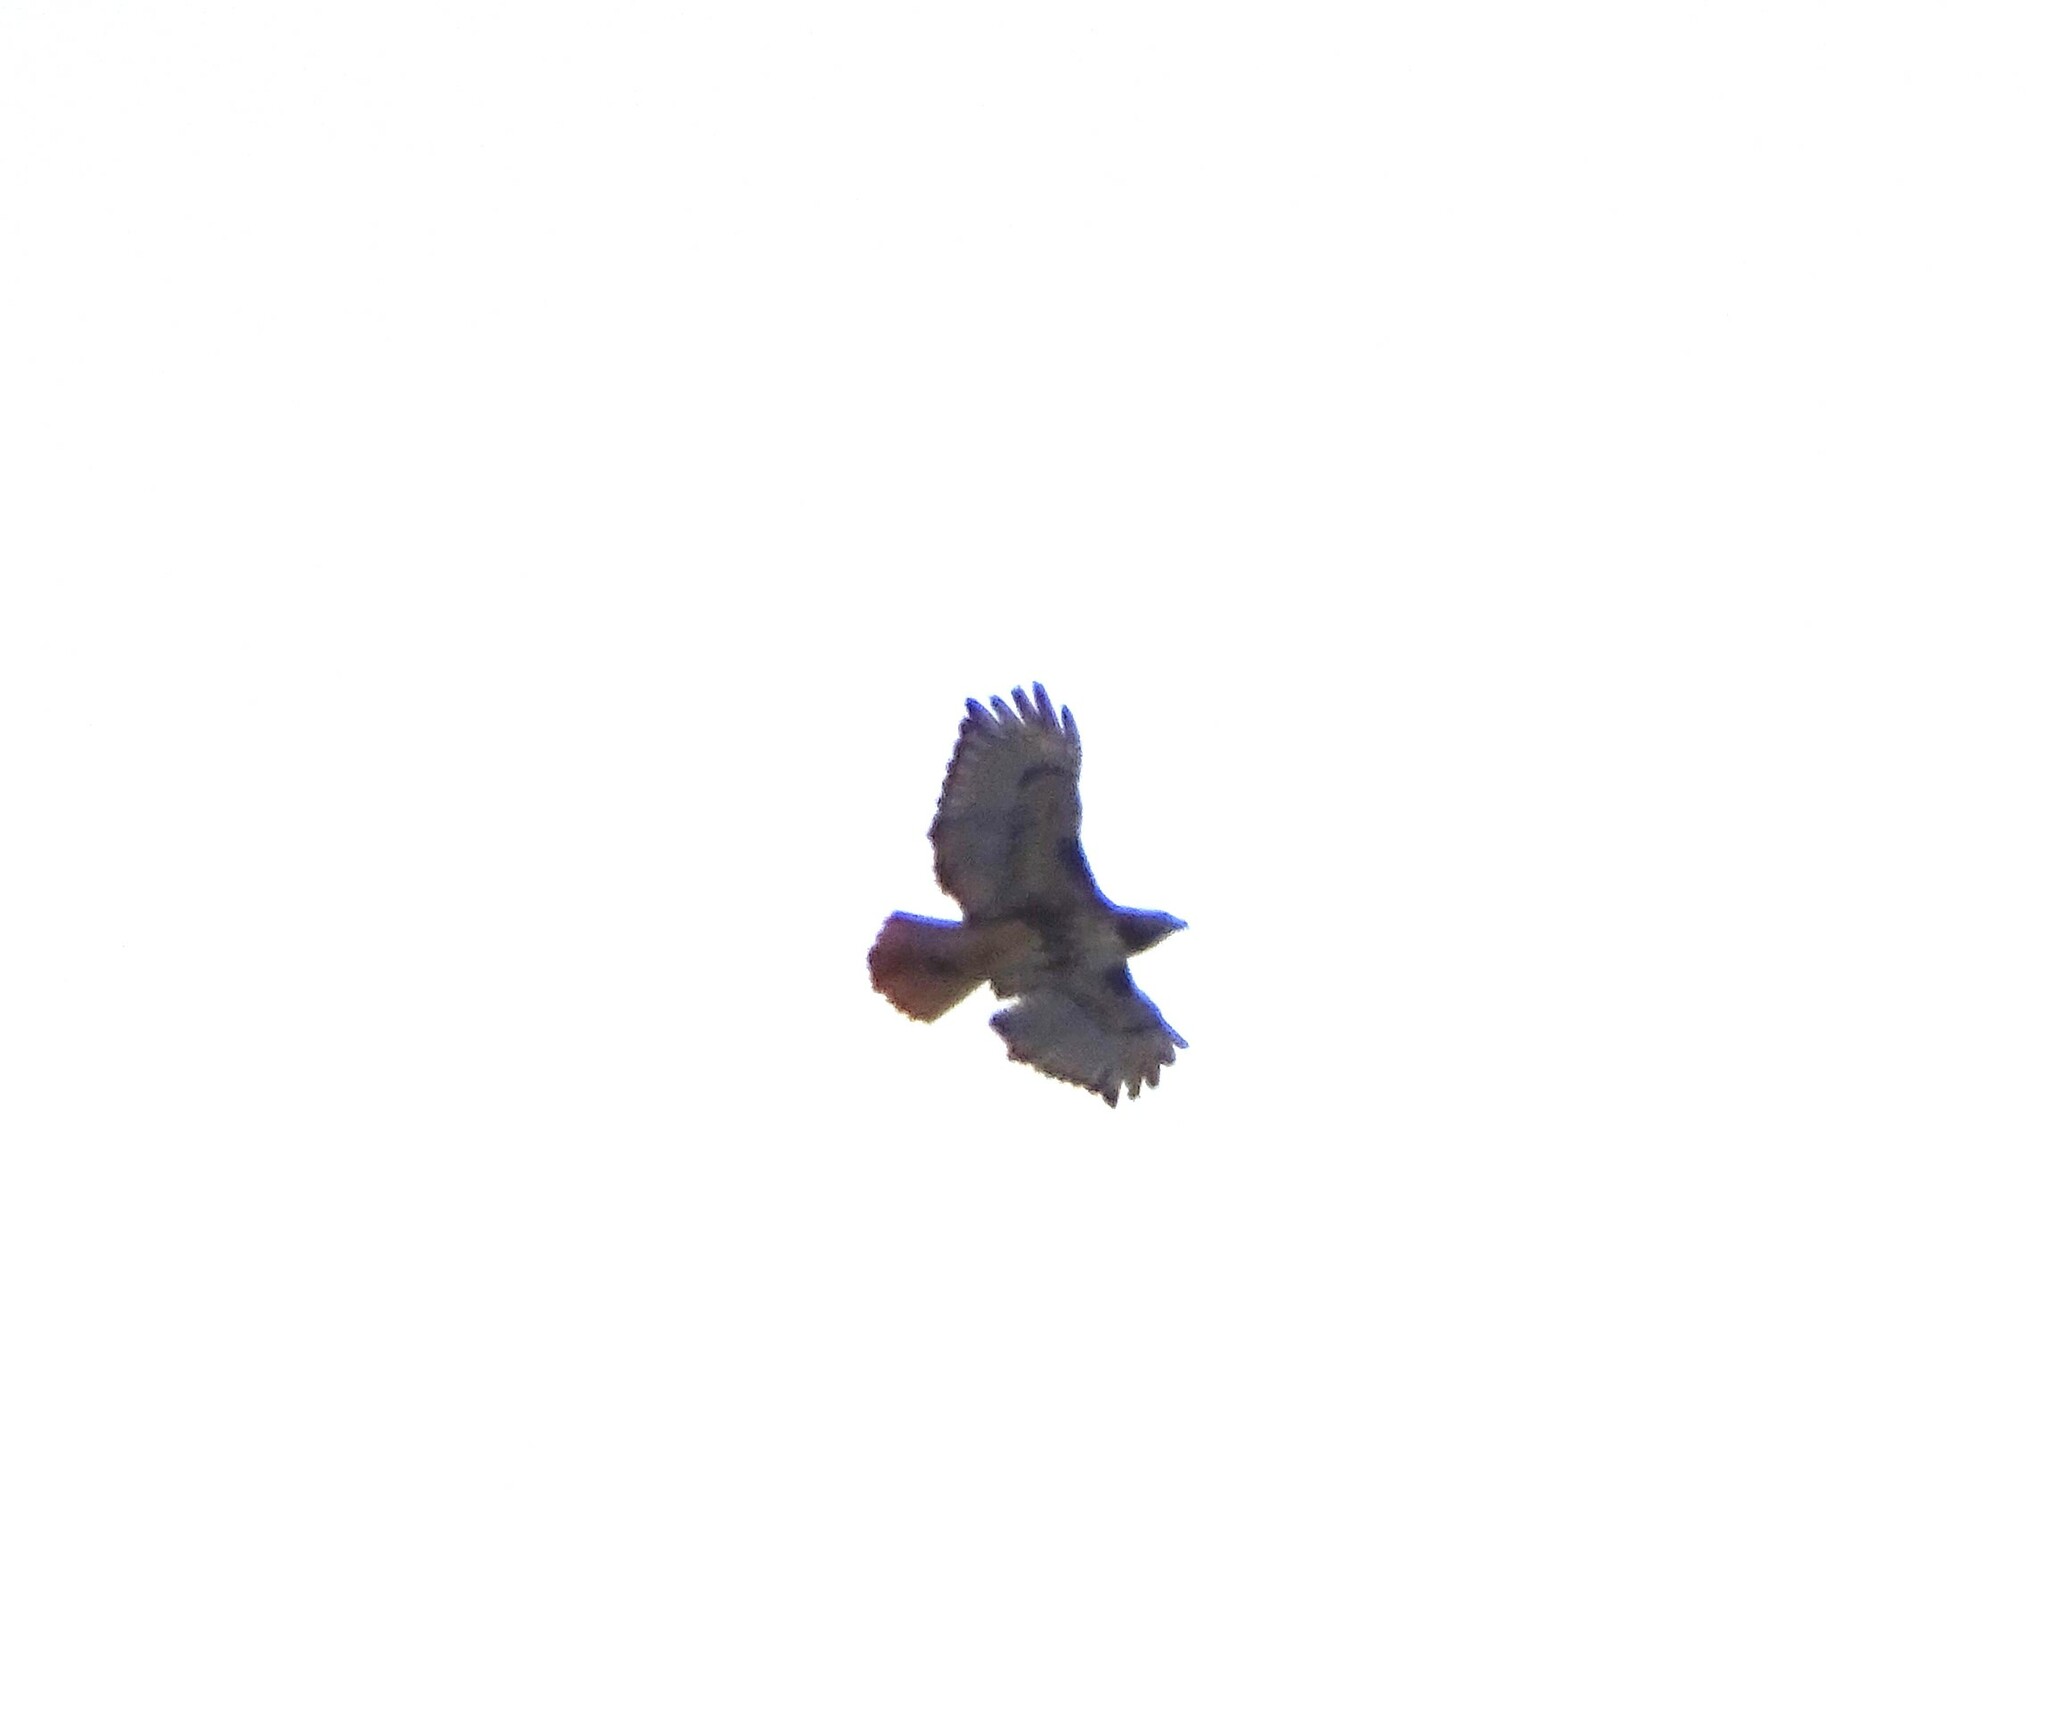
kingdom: Animalia
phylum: Chordata
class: Aves
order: Accipitriformes
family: Accipitridae
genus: Buteo
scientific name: Buteo jamaicensis
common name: Red-tailed hawk
